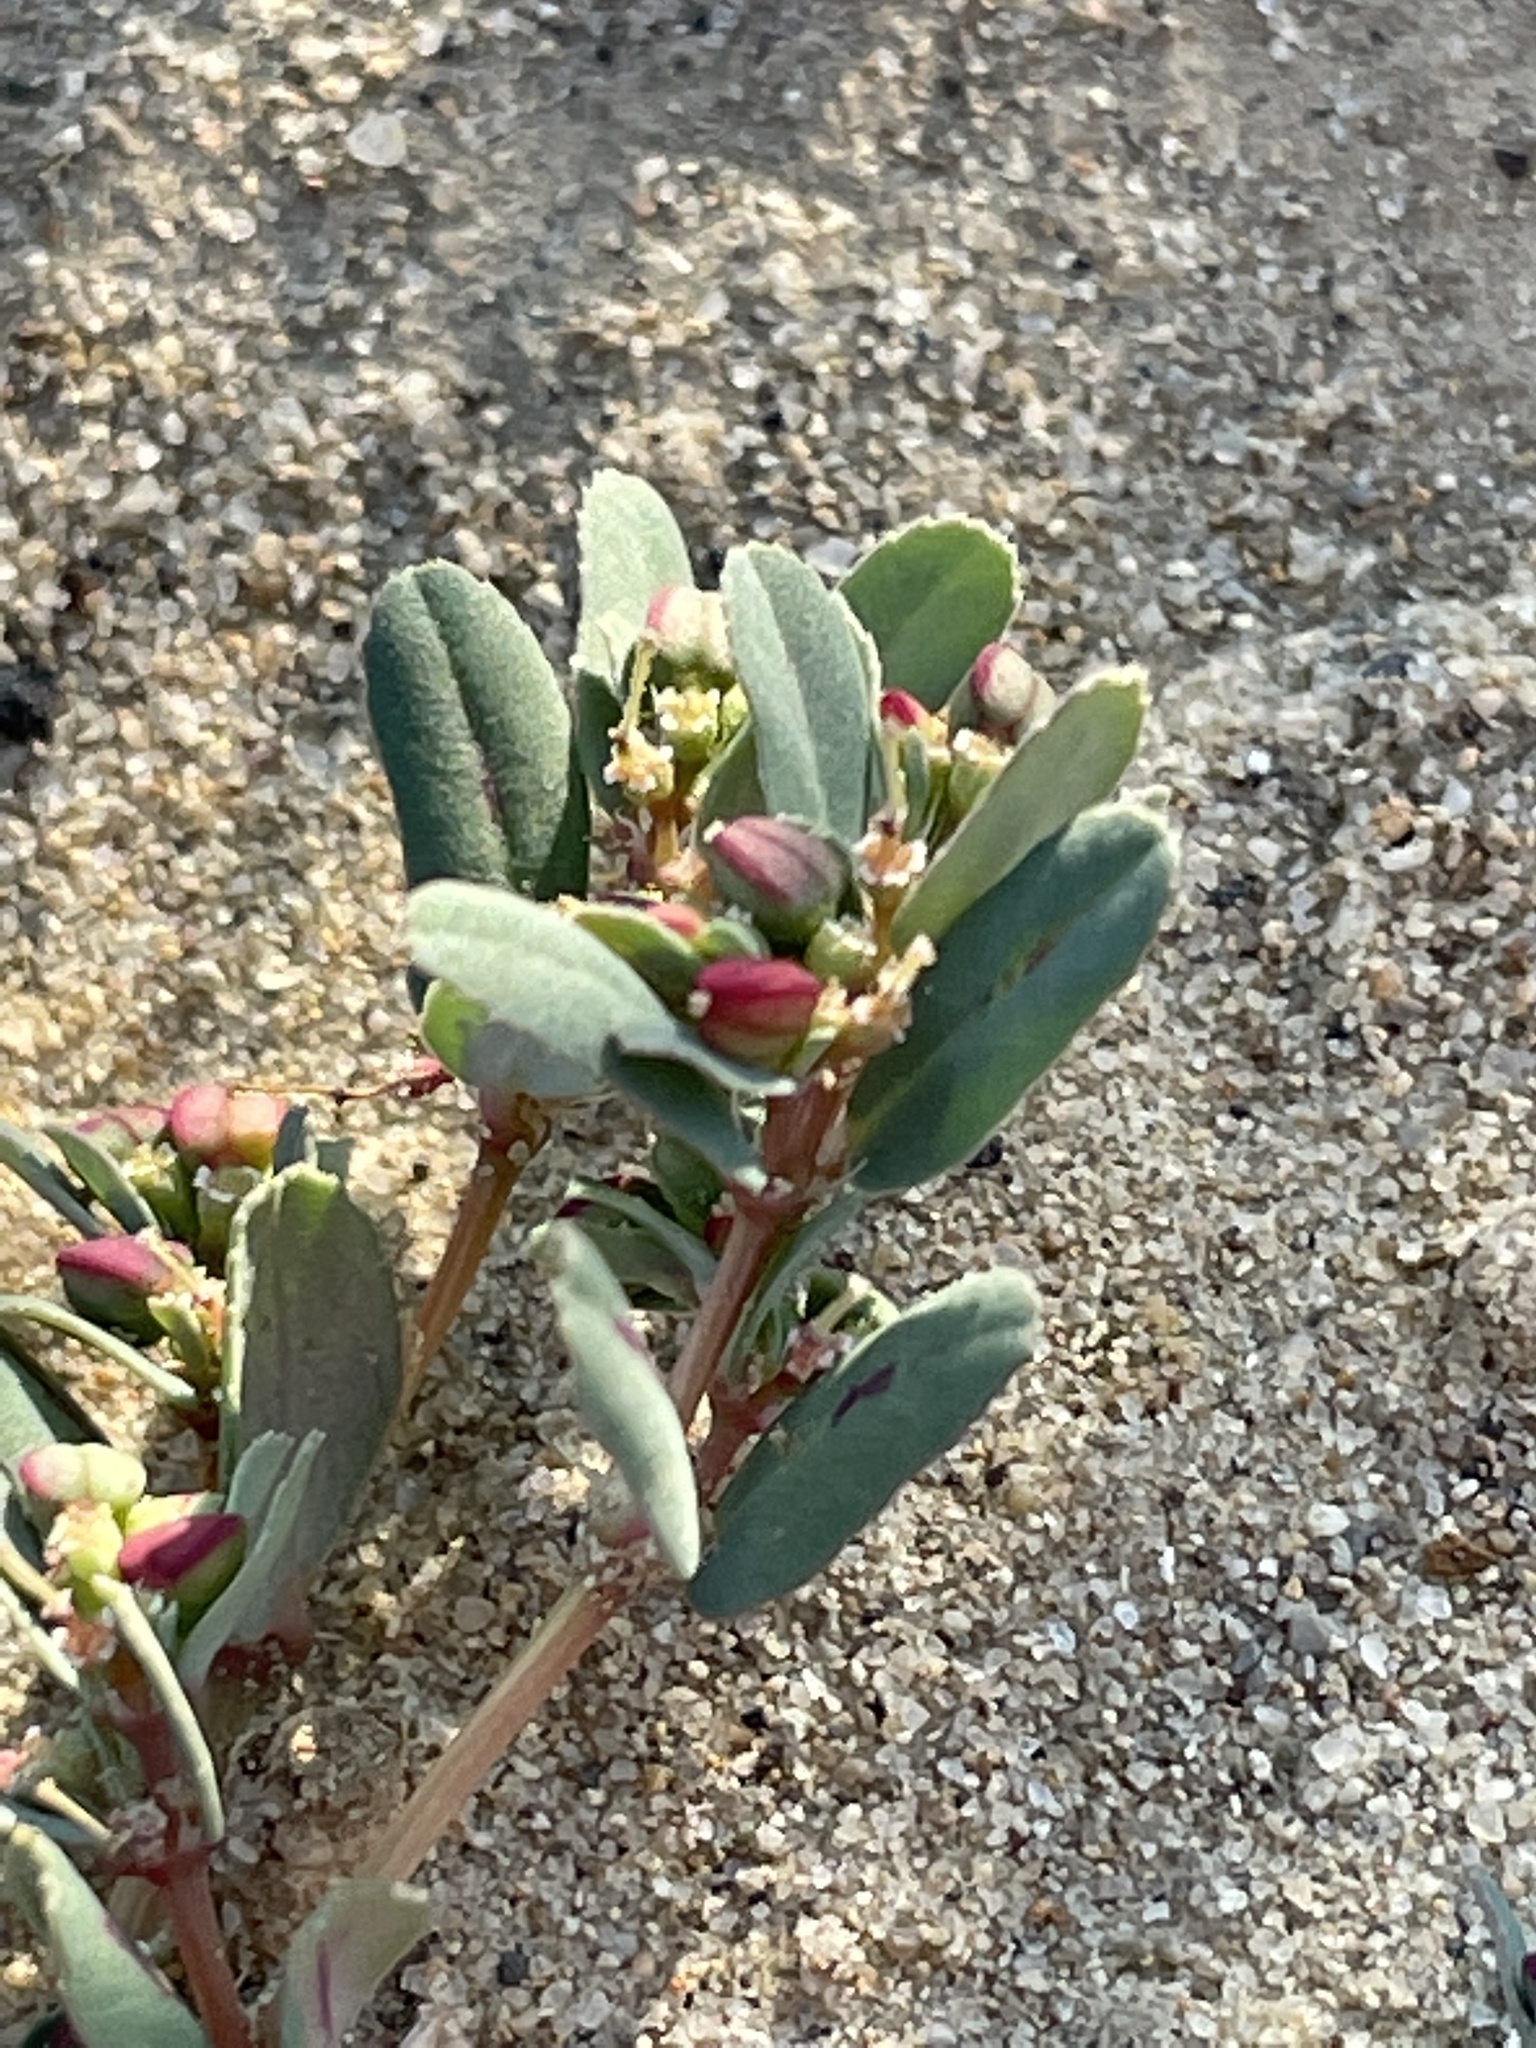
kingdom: Plantae
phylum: Tracheophyta
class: Magnoliopsida
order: Malpighiales
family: Euphorbiaceae
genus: Euphorbia
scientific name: Euphorbia serpillifolia
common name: Thyme-leaf spurge
